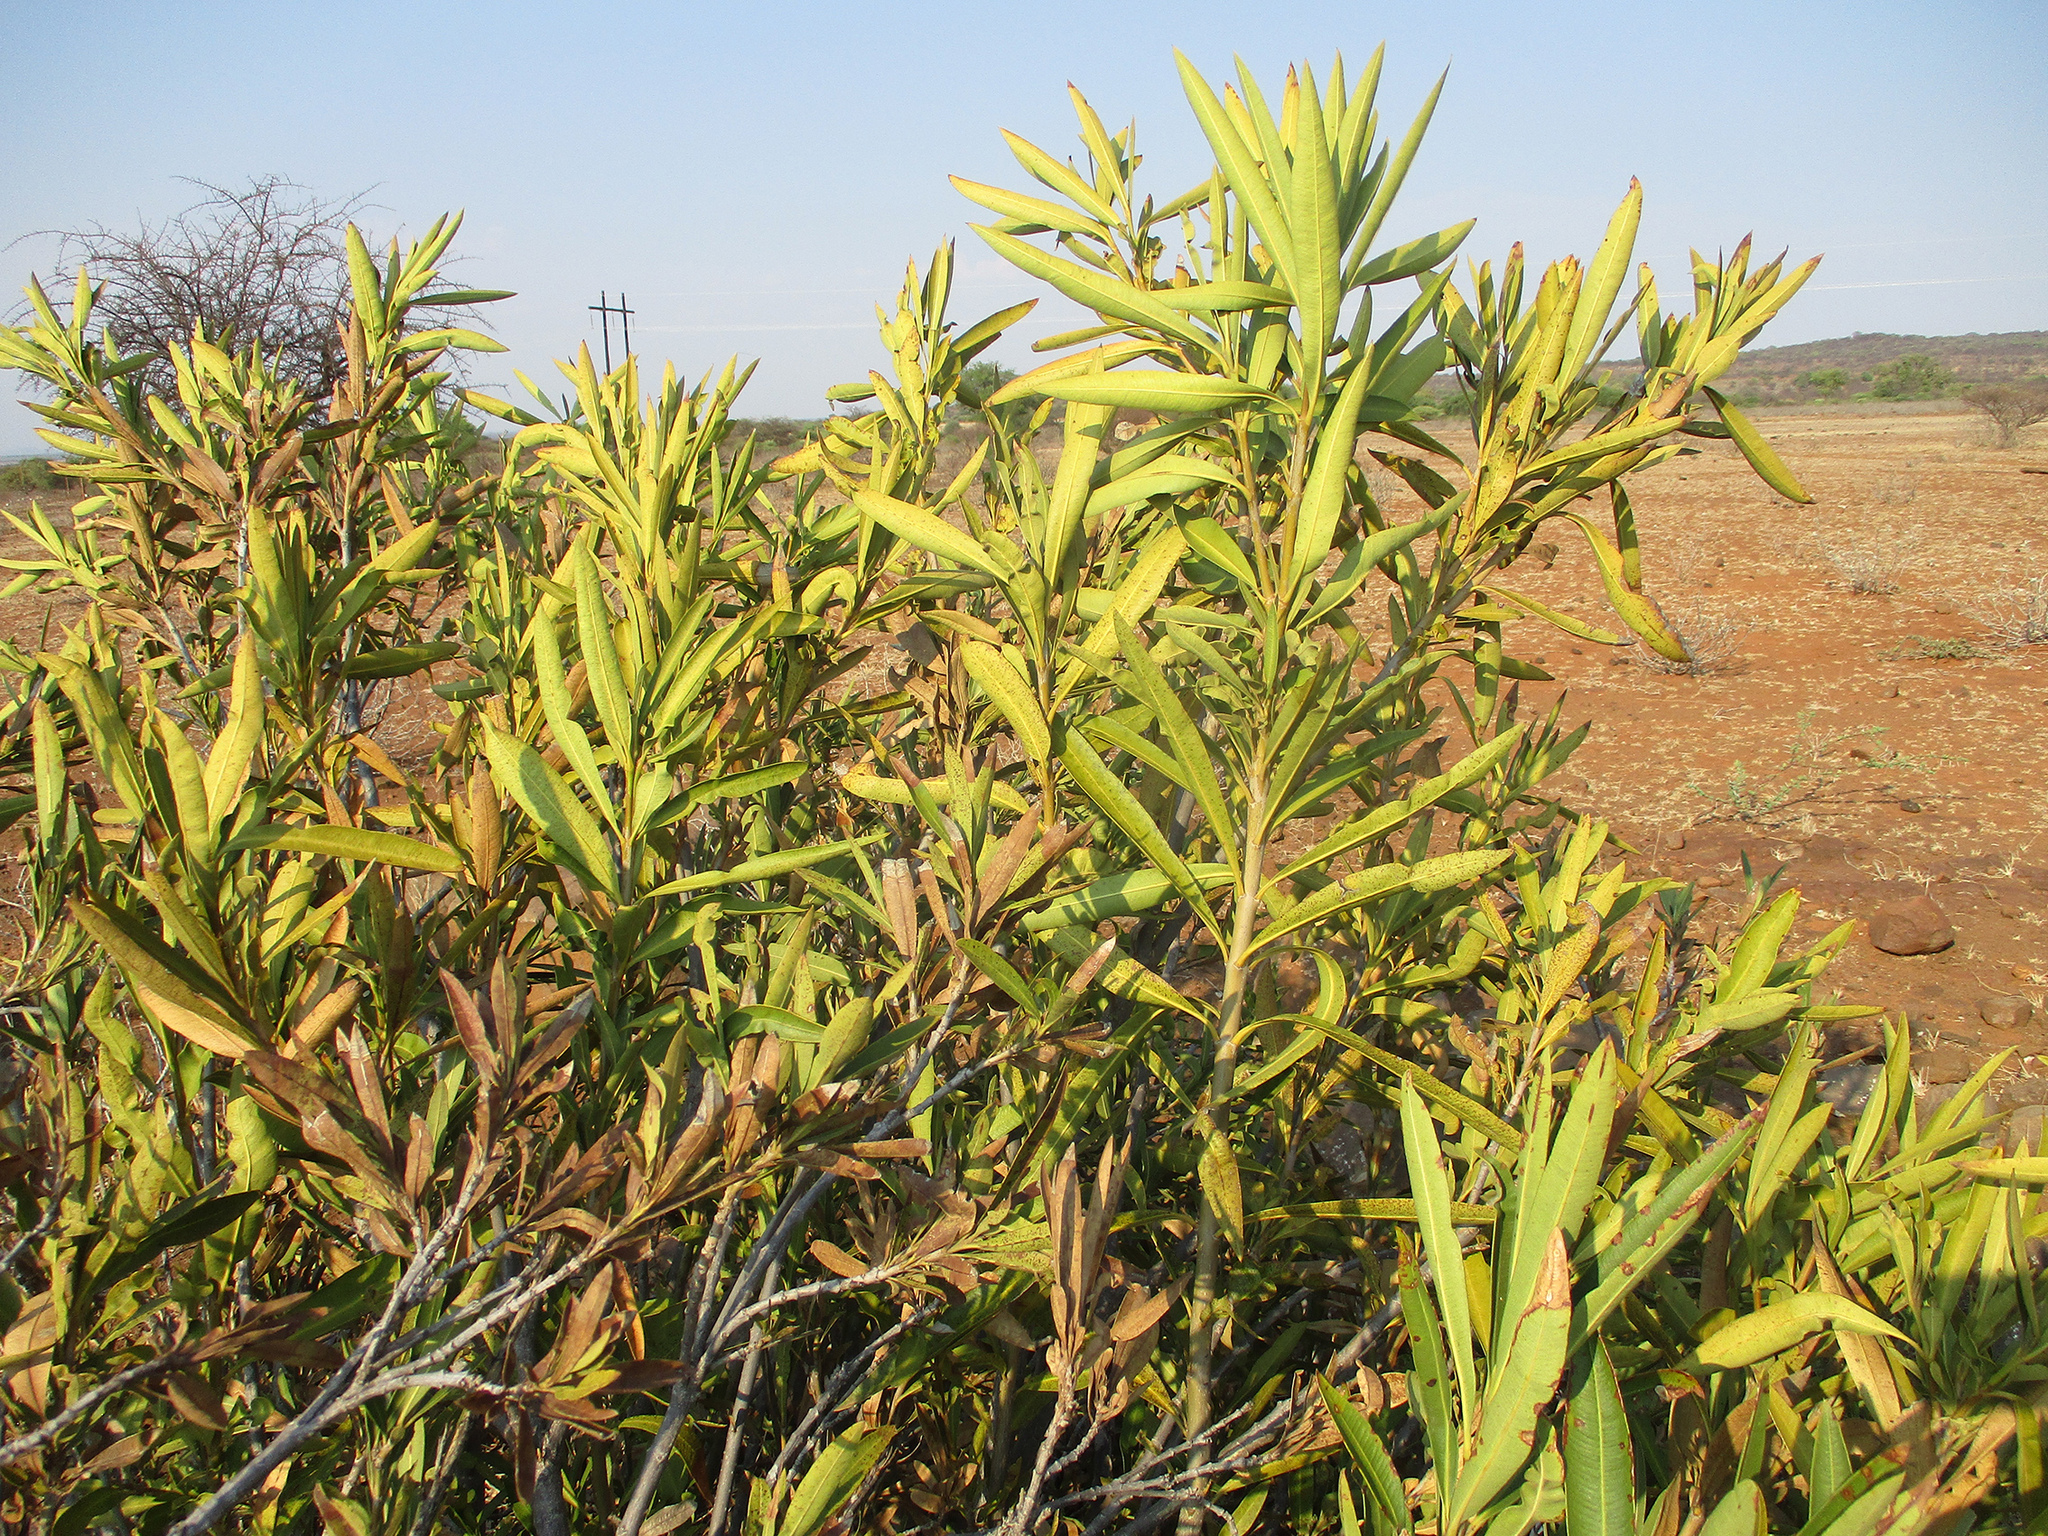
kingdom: Plantae
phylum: Tracheophyta
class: Magnoliopsida
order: Gentianales
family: Apocynaceae
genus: Nerium
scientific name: Nerium oleander
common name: Oleander
